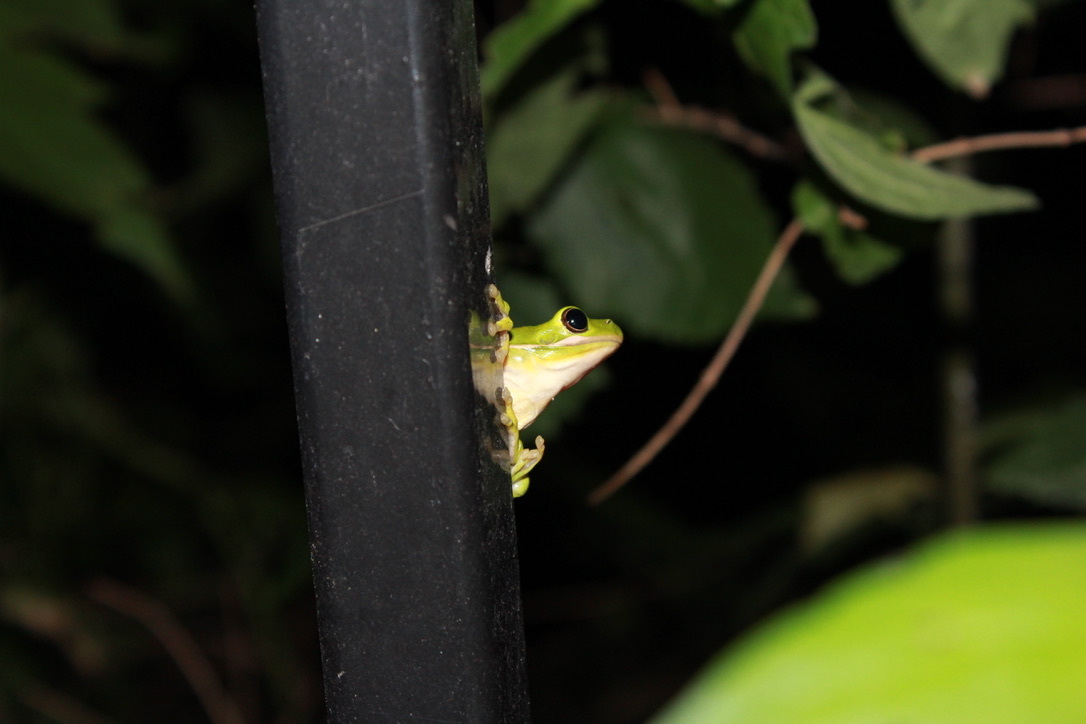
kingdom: Animalia
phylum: Chordata
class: Amphibia
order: Anura
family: Hylidae
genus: Dryophytes
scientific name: Dryophytes cinereus
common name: Green treefrog
